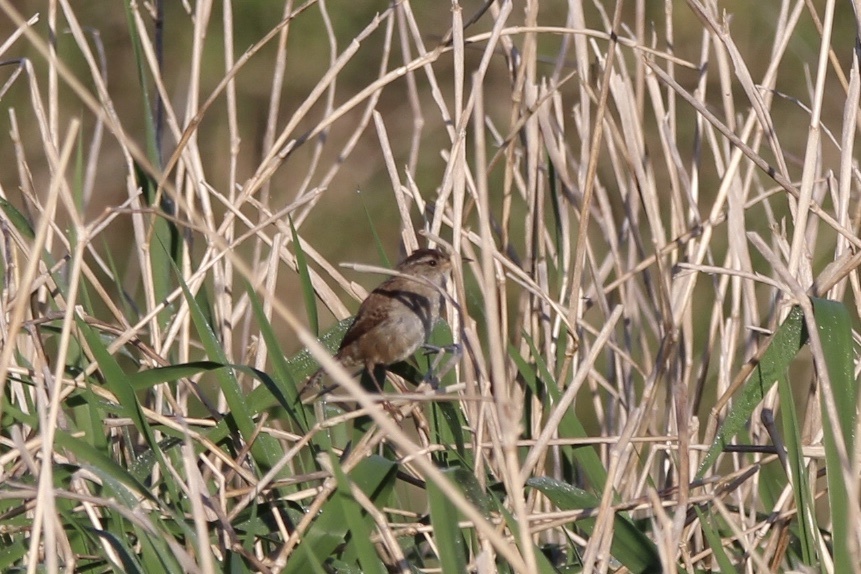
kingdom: Animalia
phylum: Chordata
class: Aves
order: Passeriformes
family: Troglodytidae
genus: Cistothorus
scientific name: Cistothorus palustris
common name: Marsh wren
